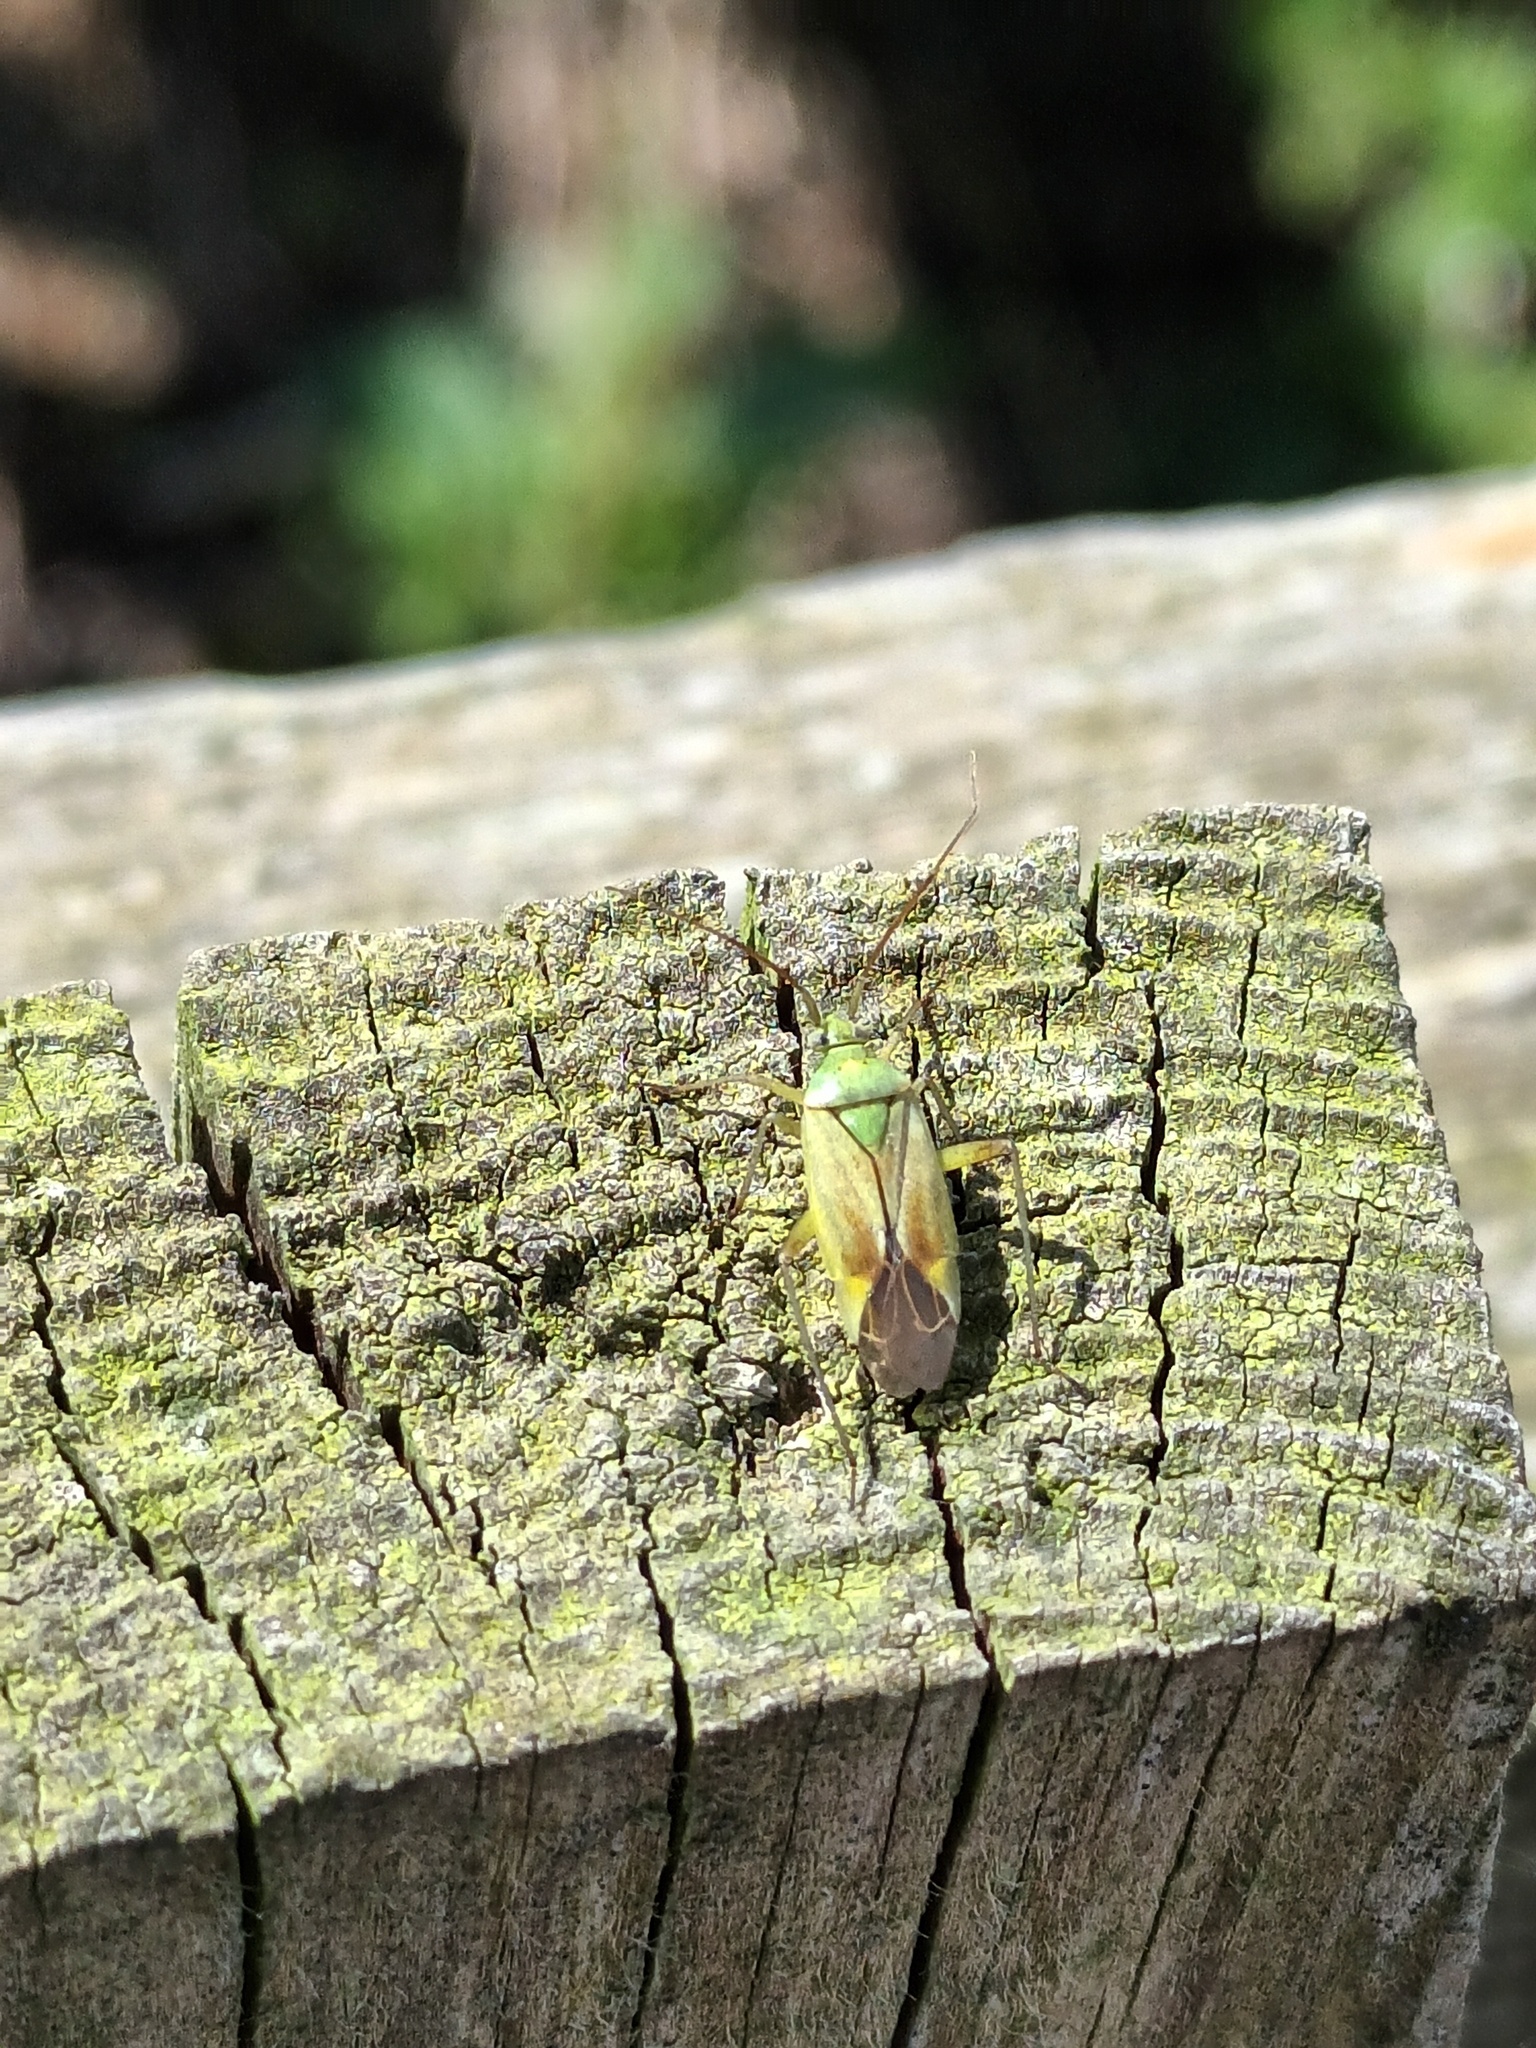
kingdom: Animalia
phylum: Arthropoda
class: Insecta
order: Hemiptera
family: Miridae
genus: Closterotomus
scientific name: Closterotomus norvegicus
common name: Plant bug
